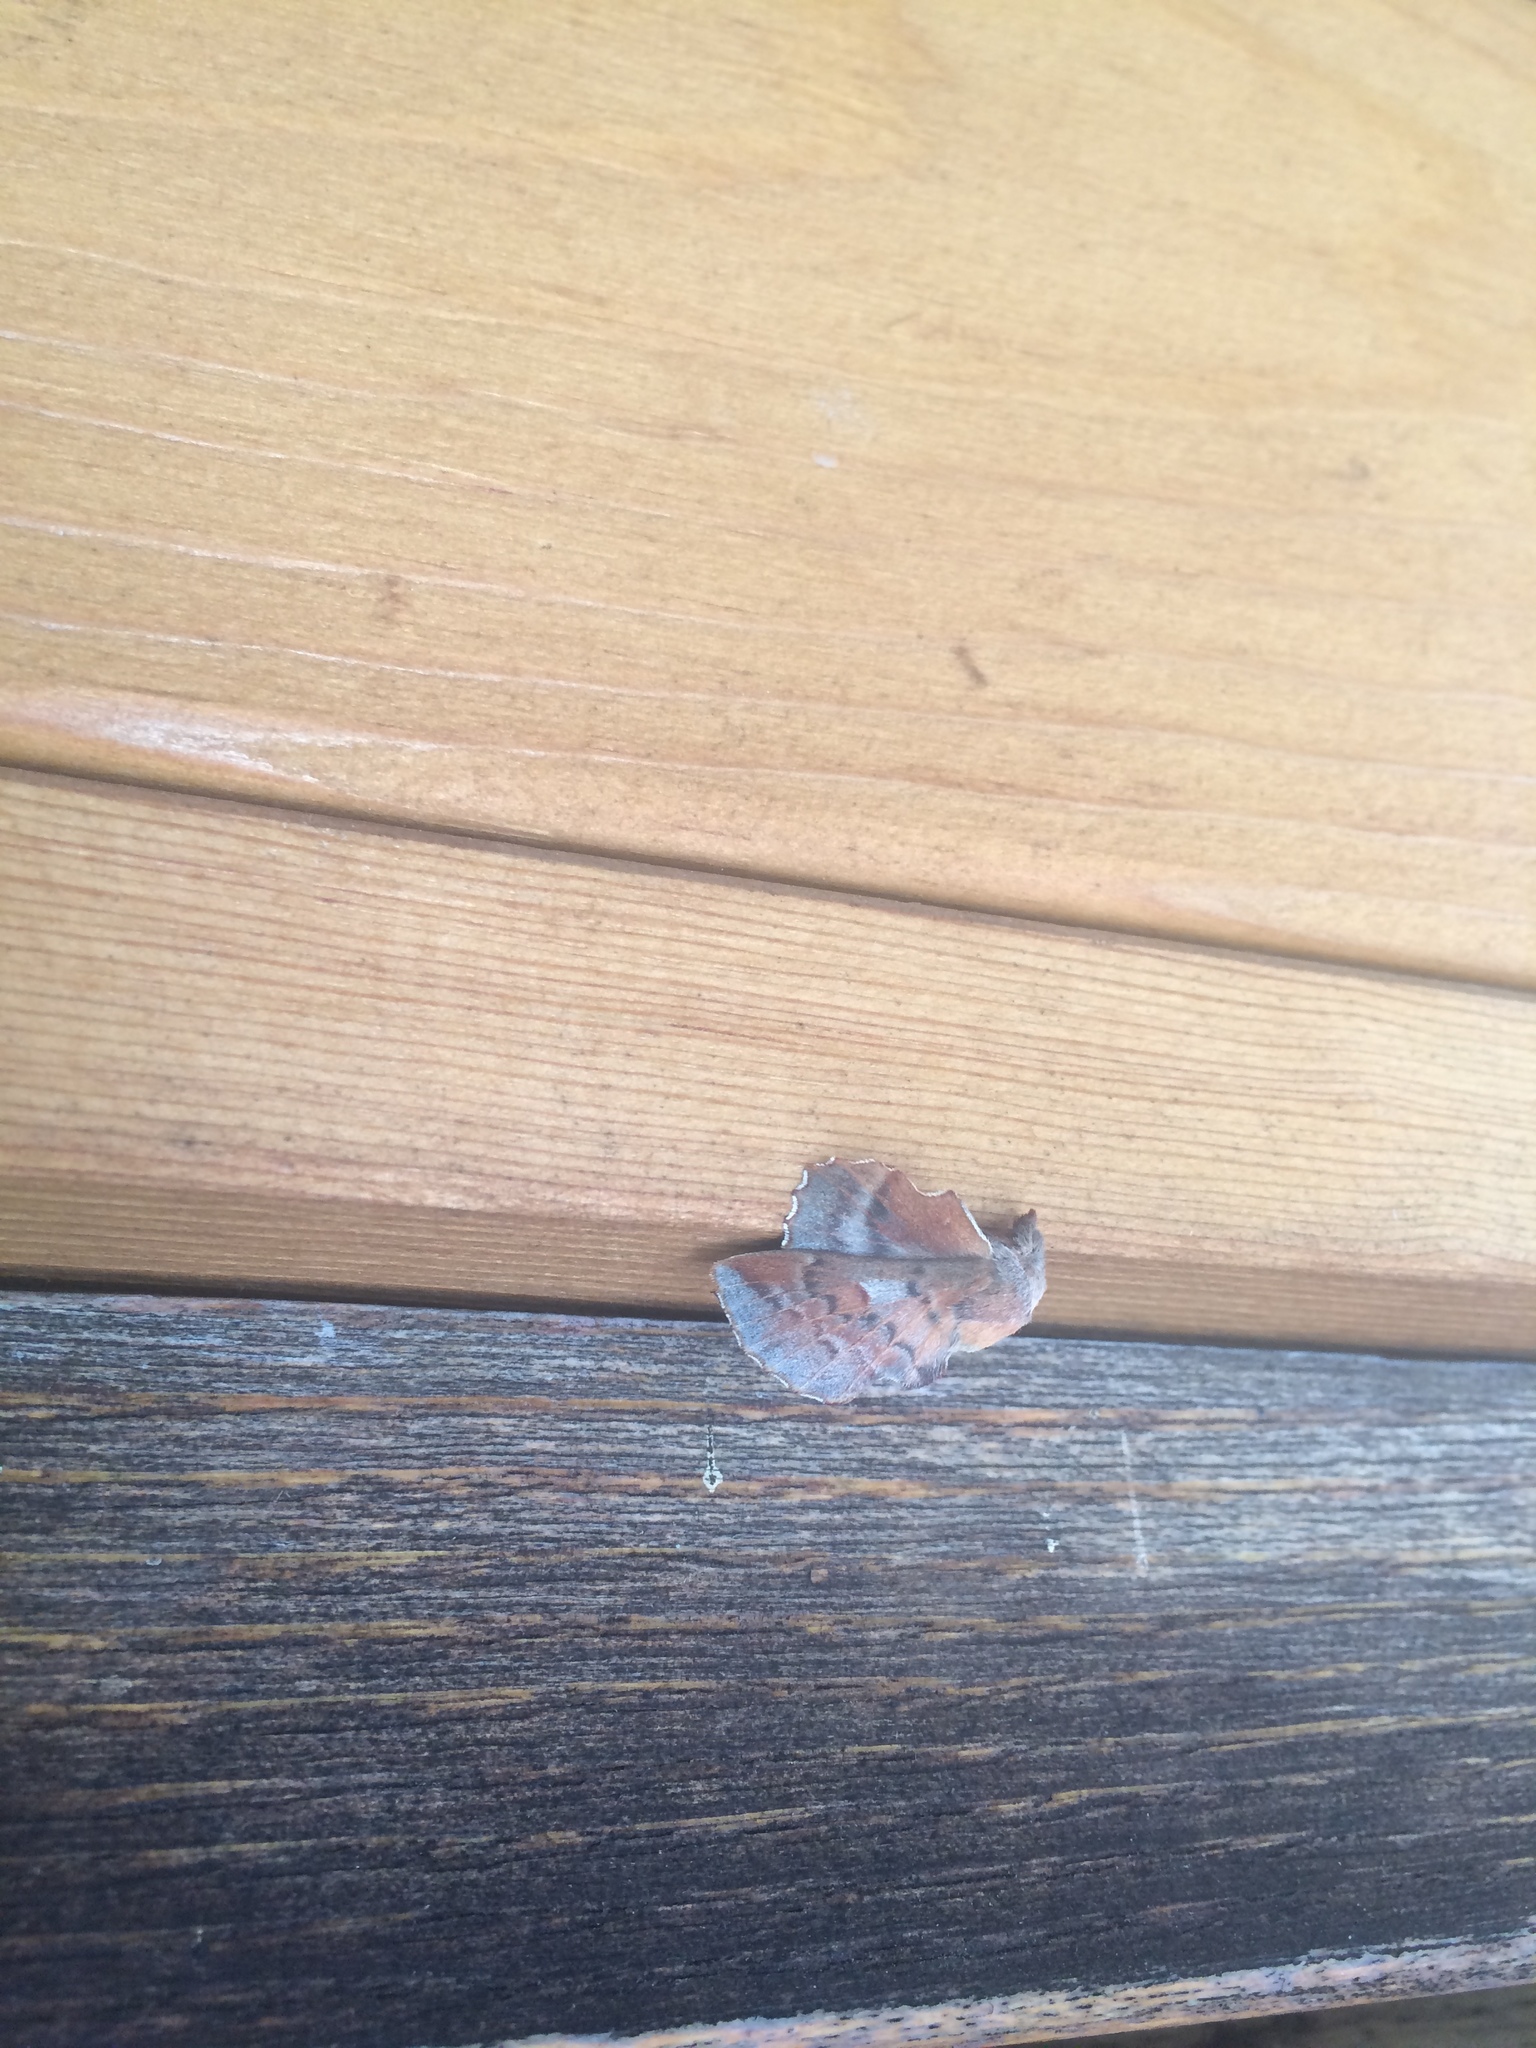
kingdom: Animalia
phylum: Arthropoda
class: Insecta
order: Lepidoptera
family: Lasiocampidae
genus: Phyllodesma
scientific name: Phyllodesma americana
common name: American lappet moth
